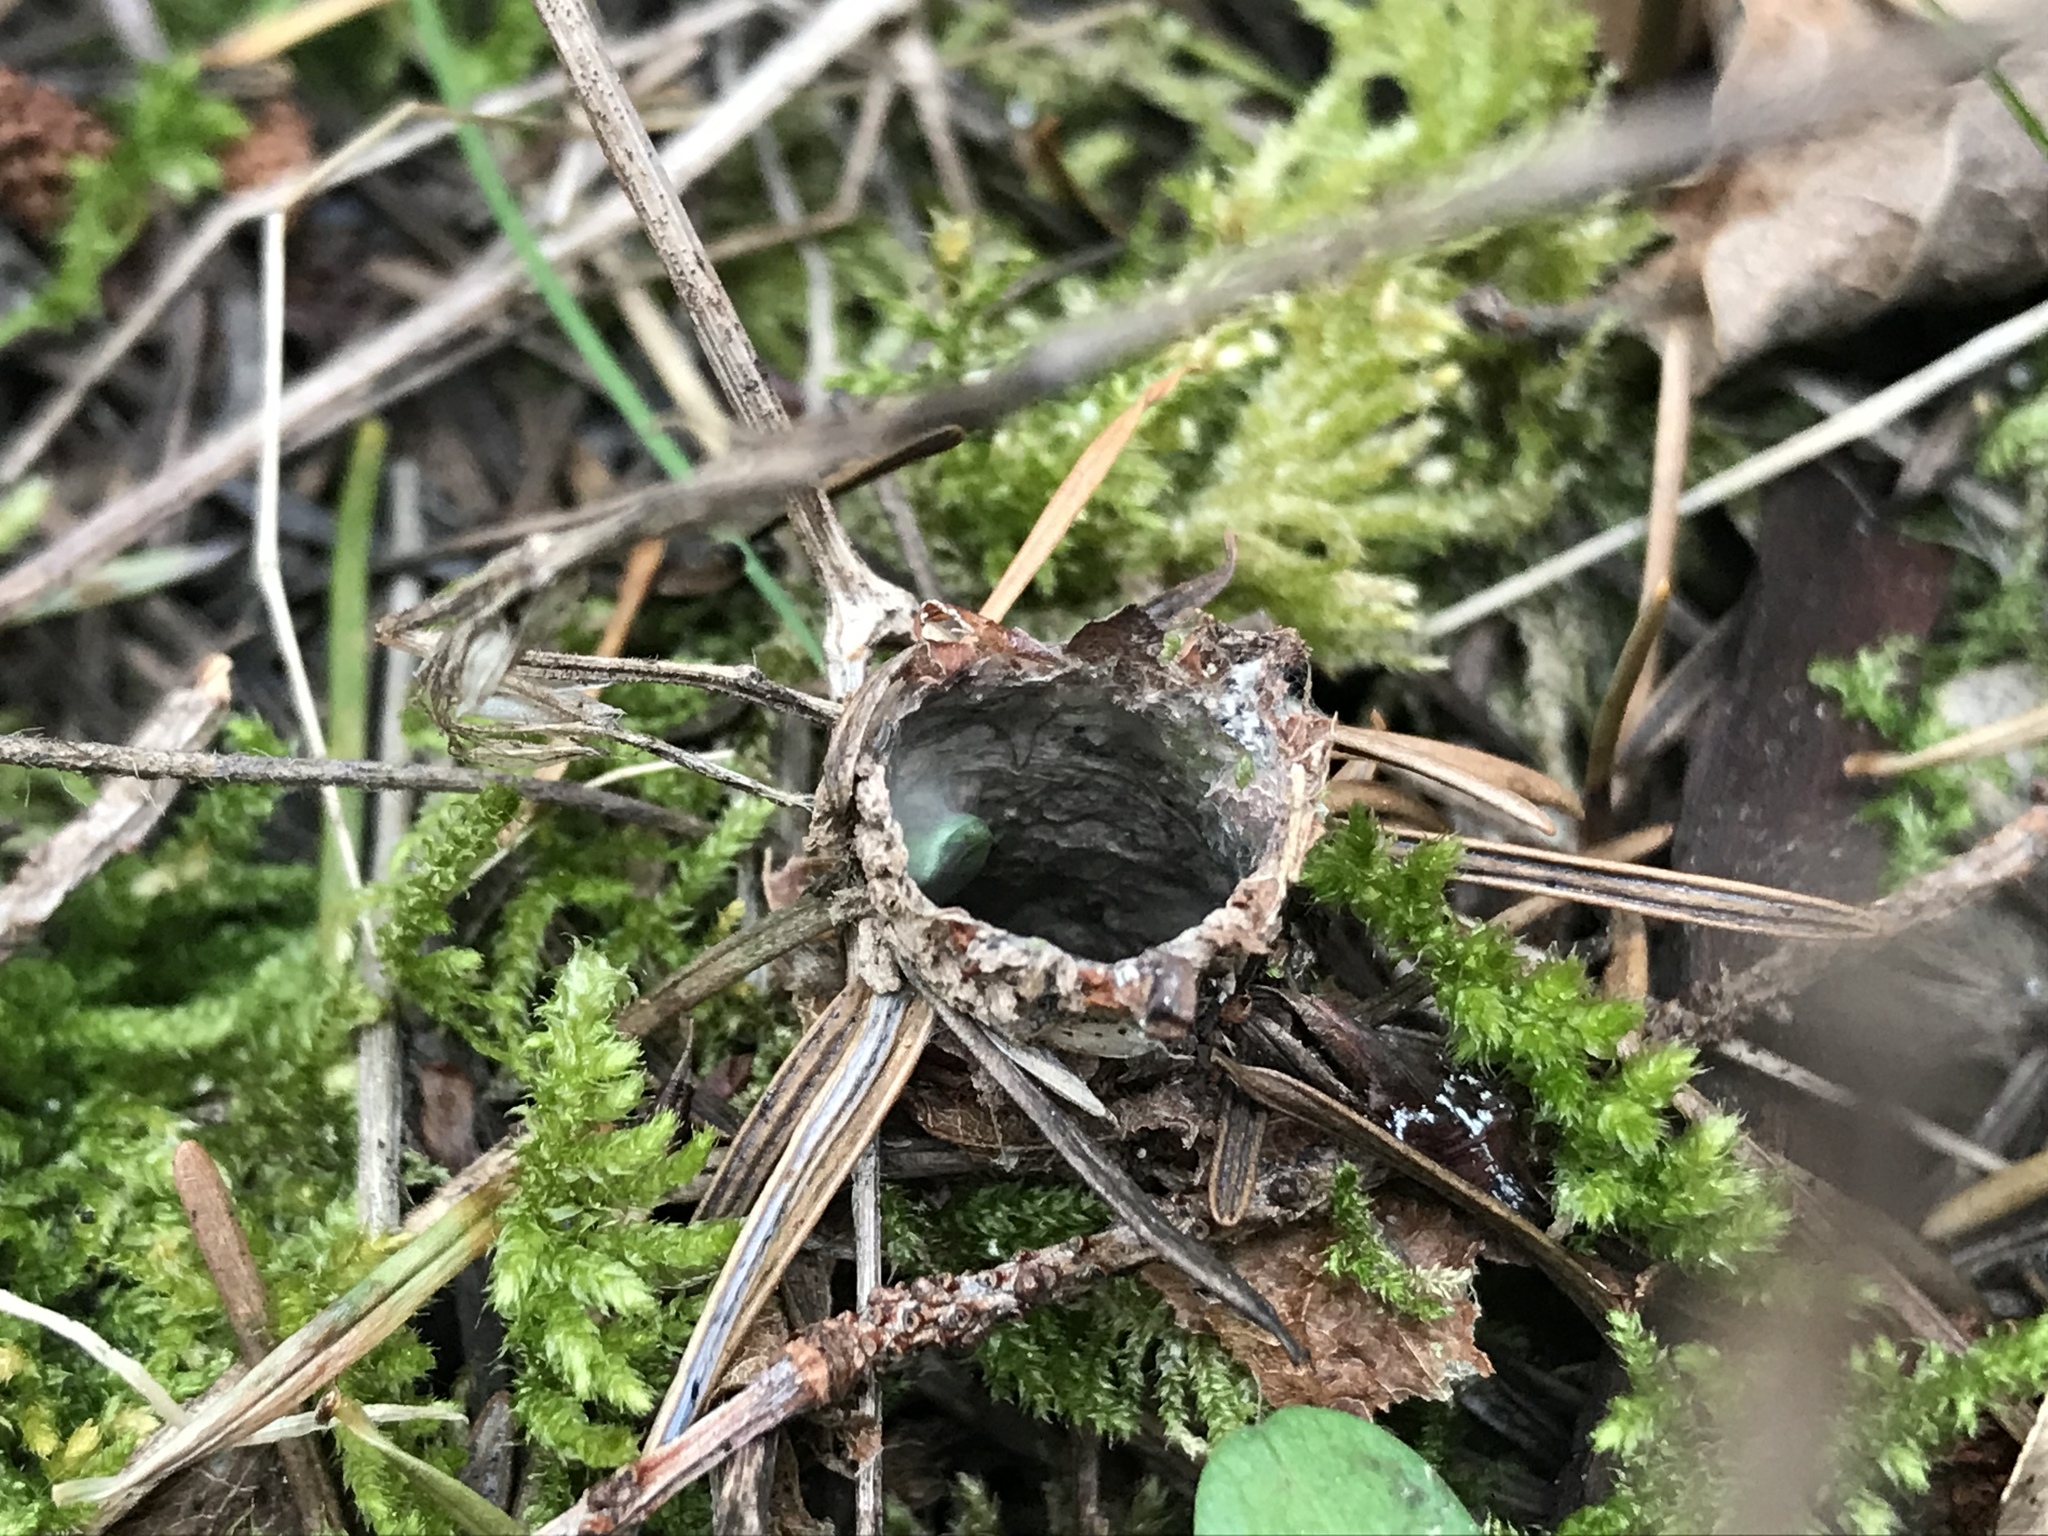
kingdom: Animalia
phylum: Arthropoda
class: Arachnida
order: Araneae
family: Antrodiaetidae
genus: Atypoides
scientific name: Atypoides riversi
